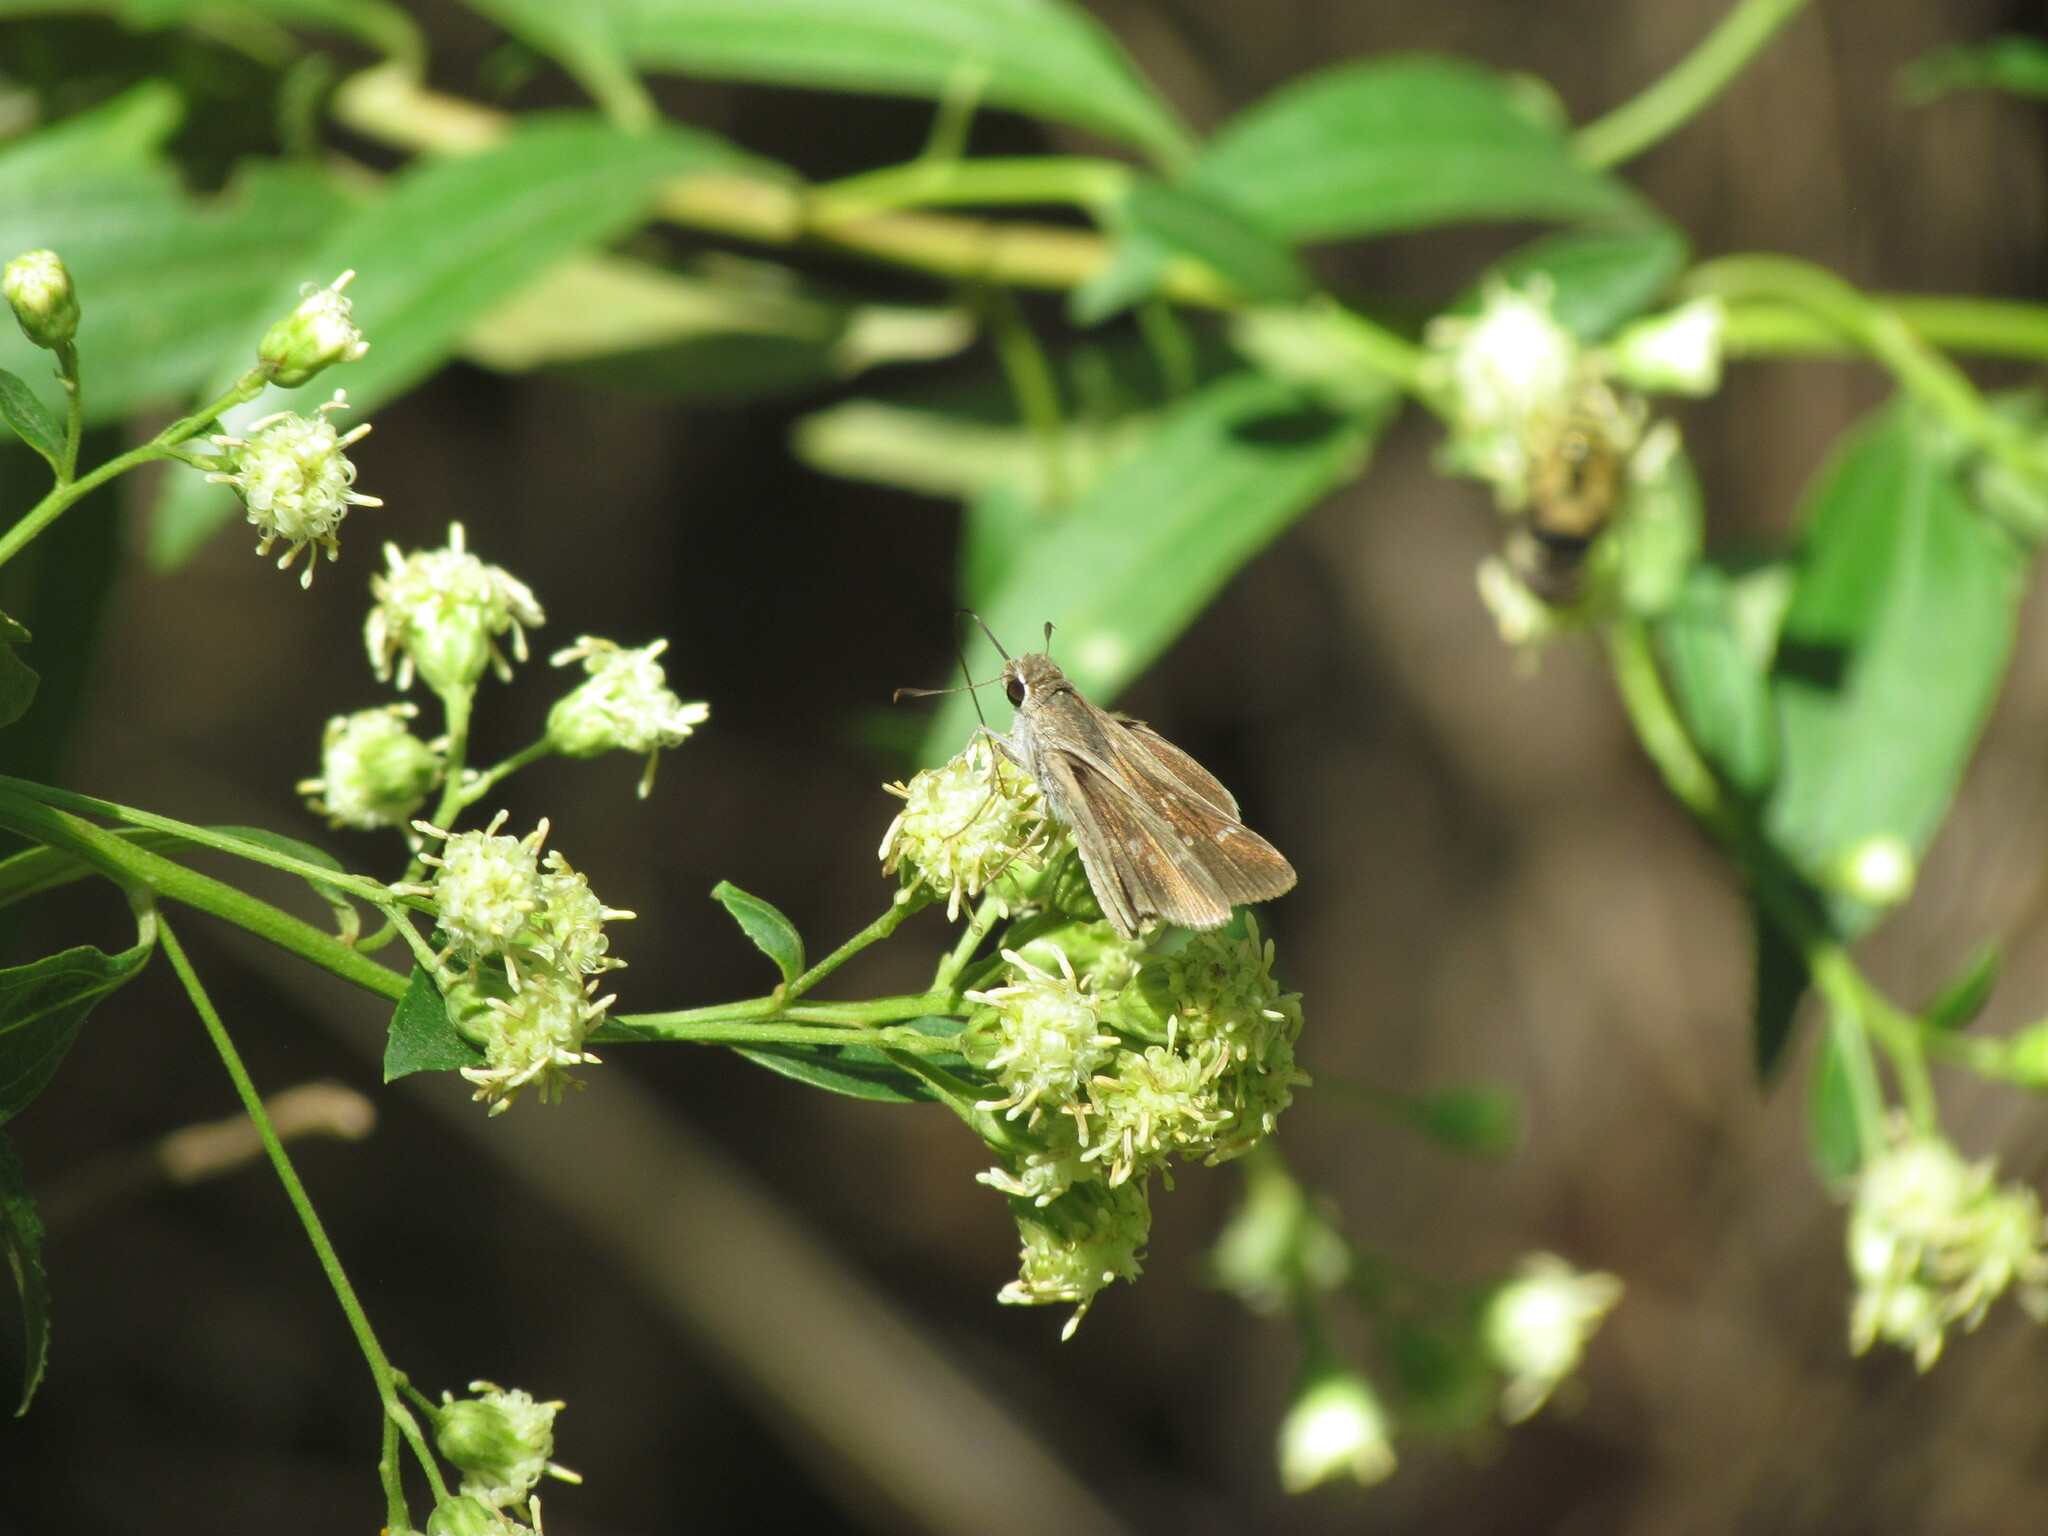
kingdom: Animalia
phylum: Arthropoda
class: Insecta
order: Lepidoptera
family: Hesperiidae
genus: Lerodea
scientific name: Lerodea eufala
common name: Eufala skipper
